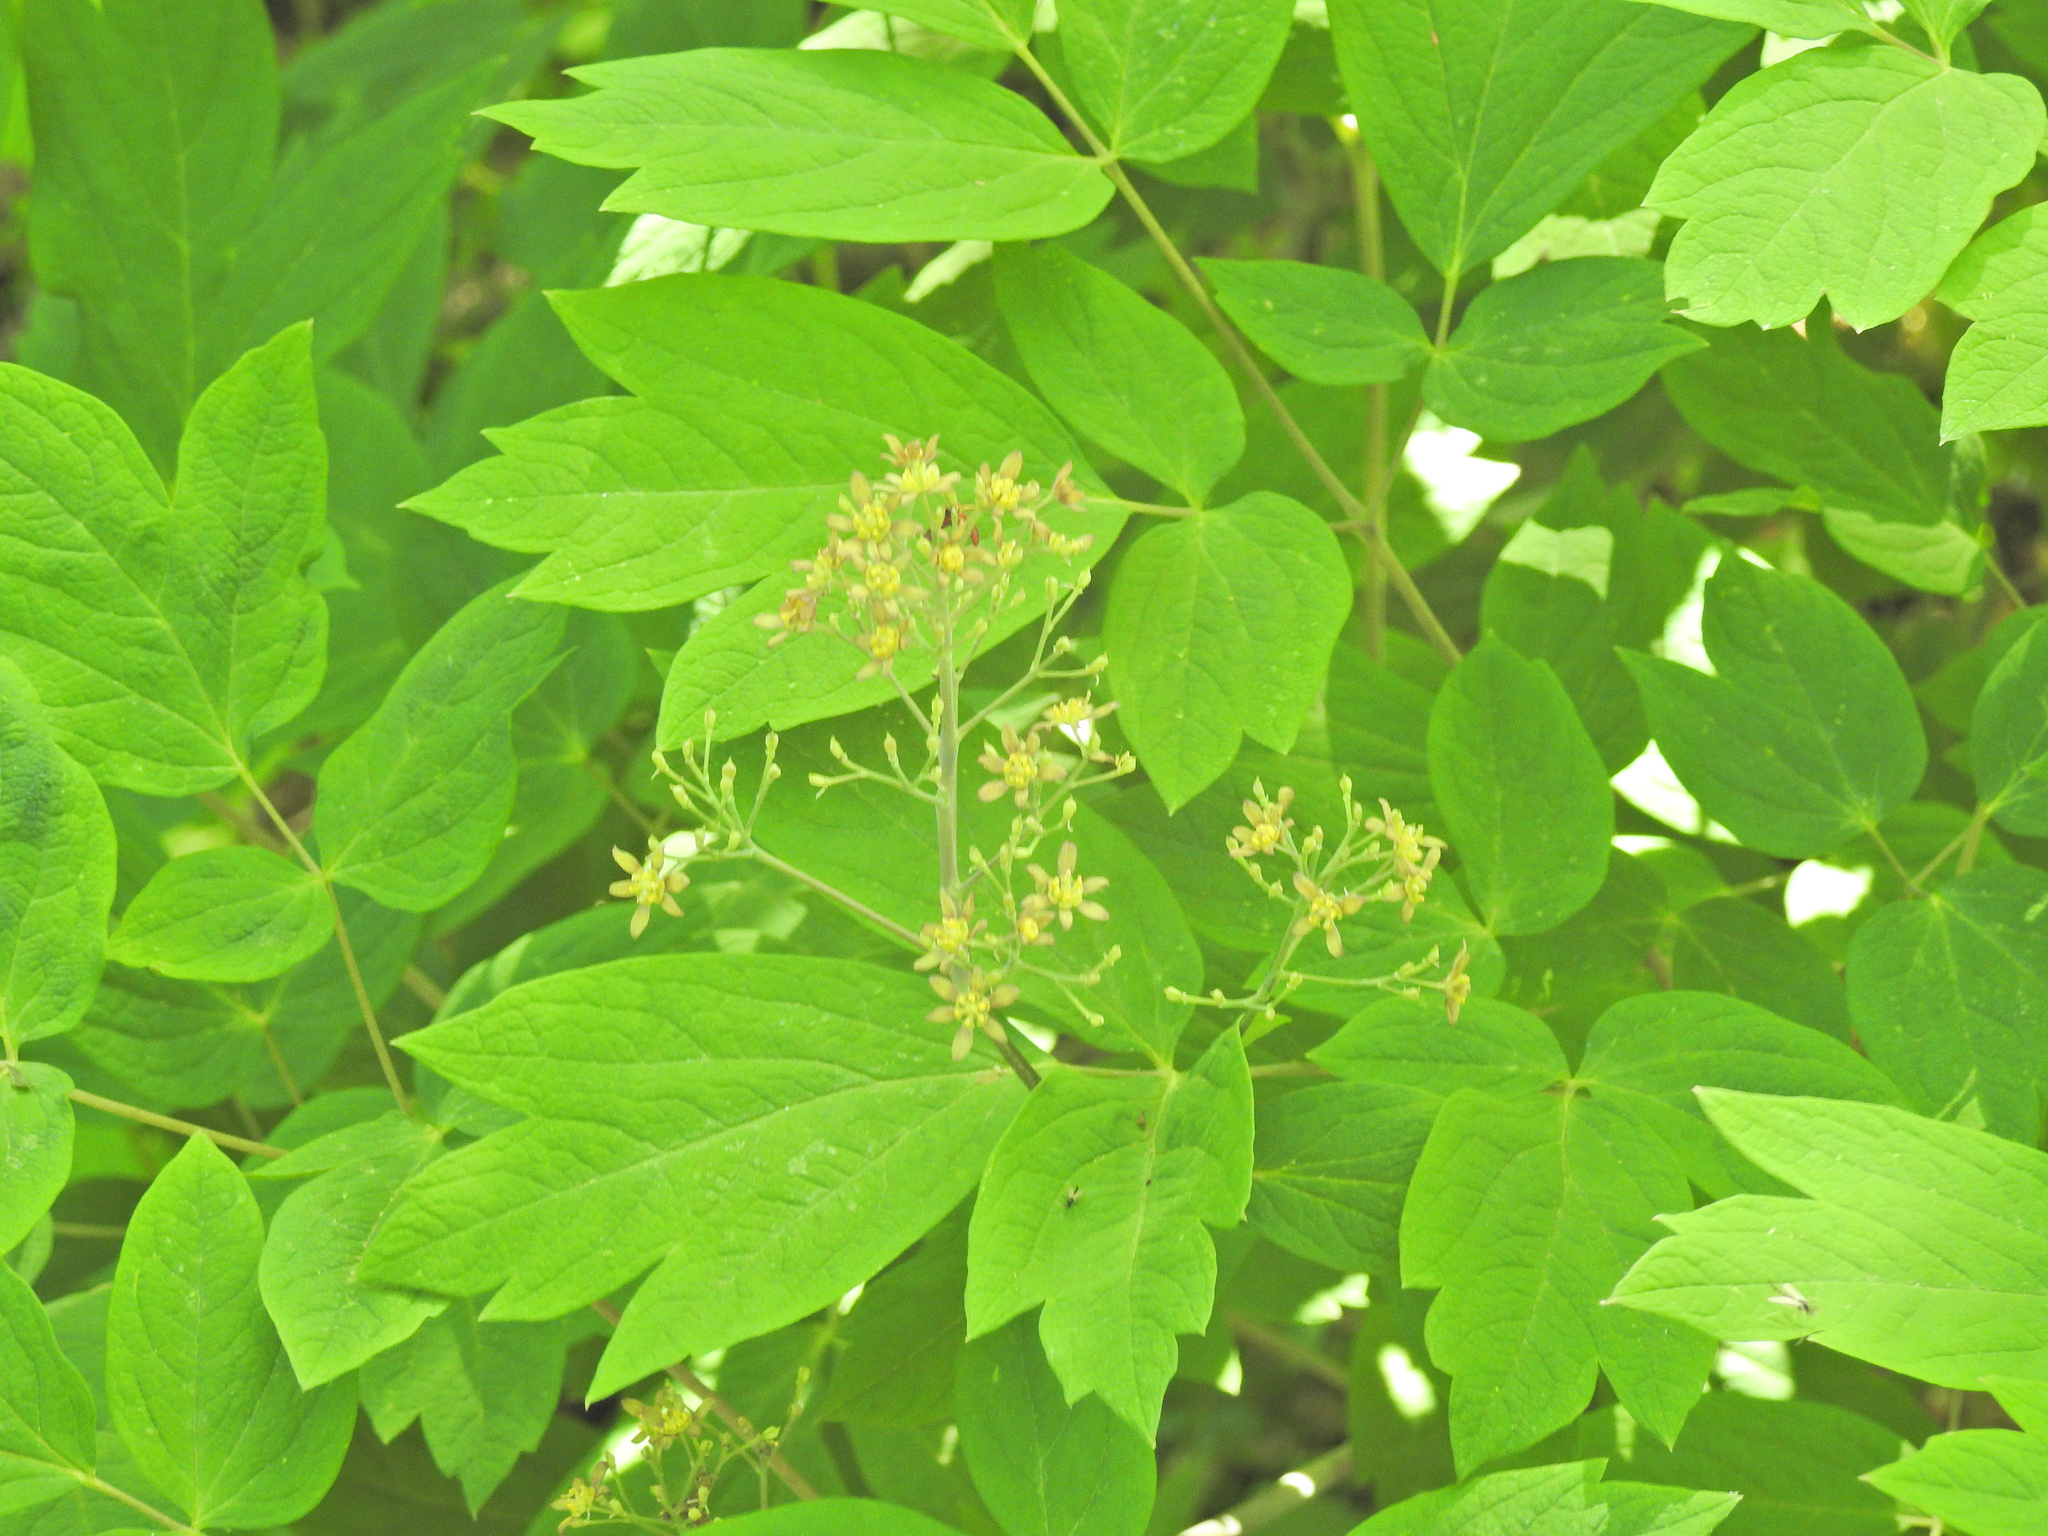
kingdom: Plantae
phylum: Tracheophyta
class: Magnoliopsida
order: Ranunculales
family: Berberidaceae
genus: Caulophyllum
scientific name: Caulophyllum thalictroides
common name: Blue cohosh
